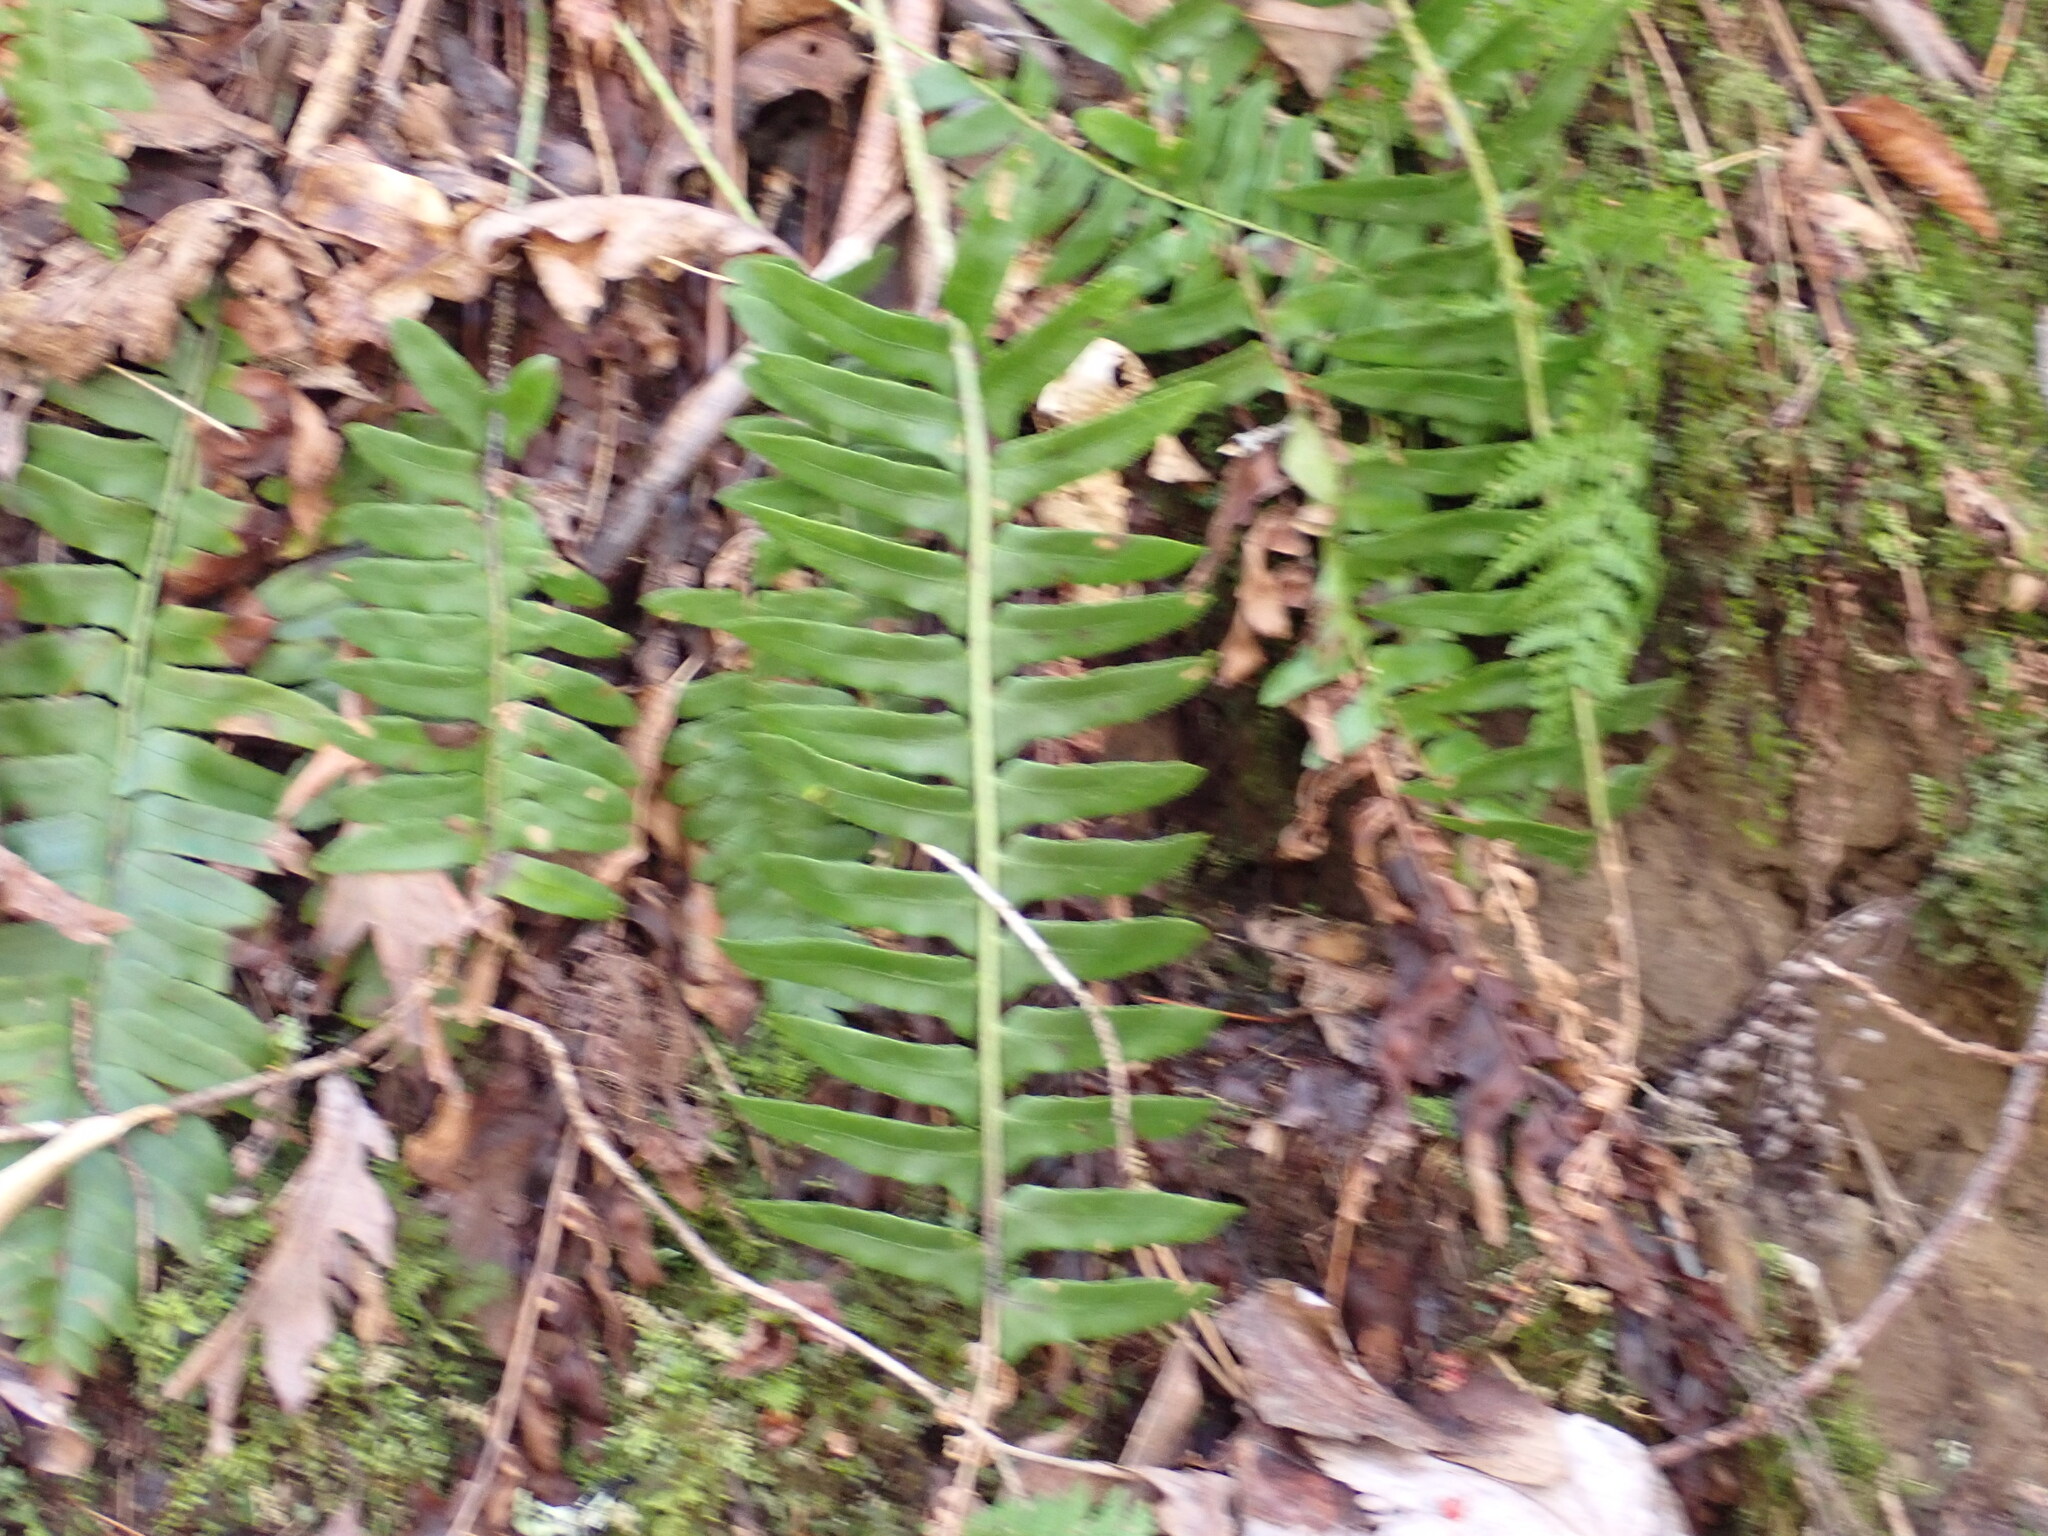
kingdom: Plantae
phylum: Tracheophyta
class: Polypodiopsida
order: Polypodiales
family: Dryopteridaceae
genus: Polystichum
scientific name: Polystichum acrostichoides
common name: Christmas fern
